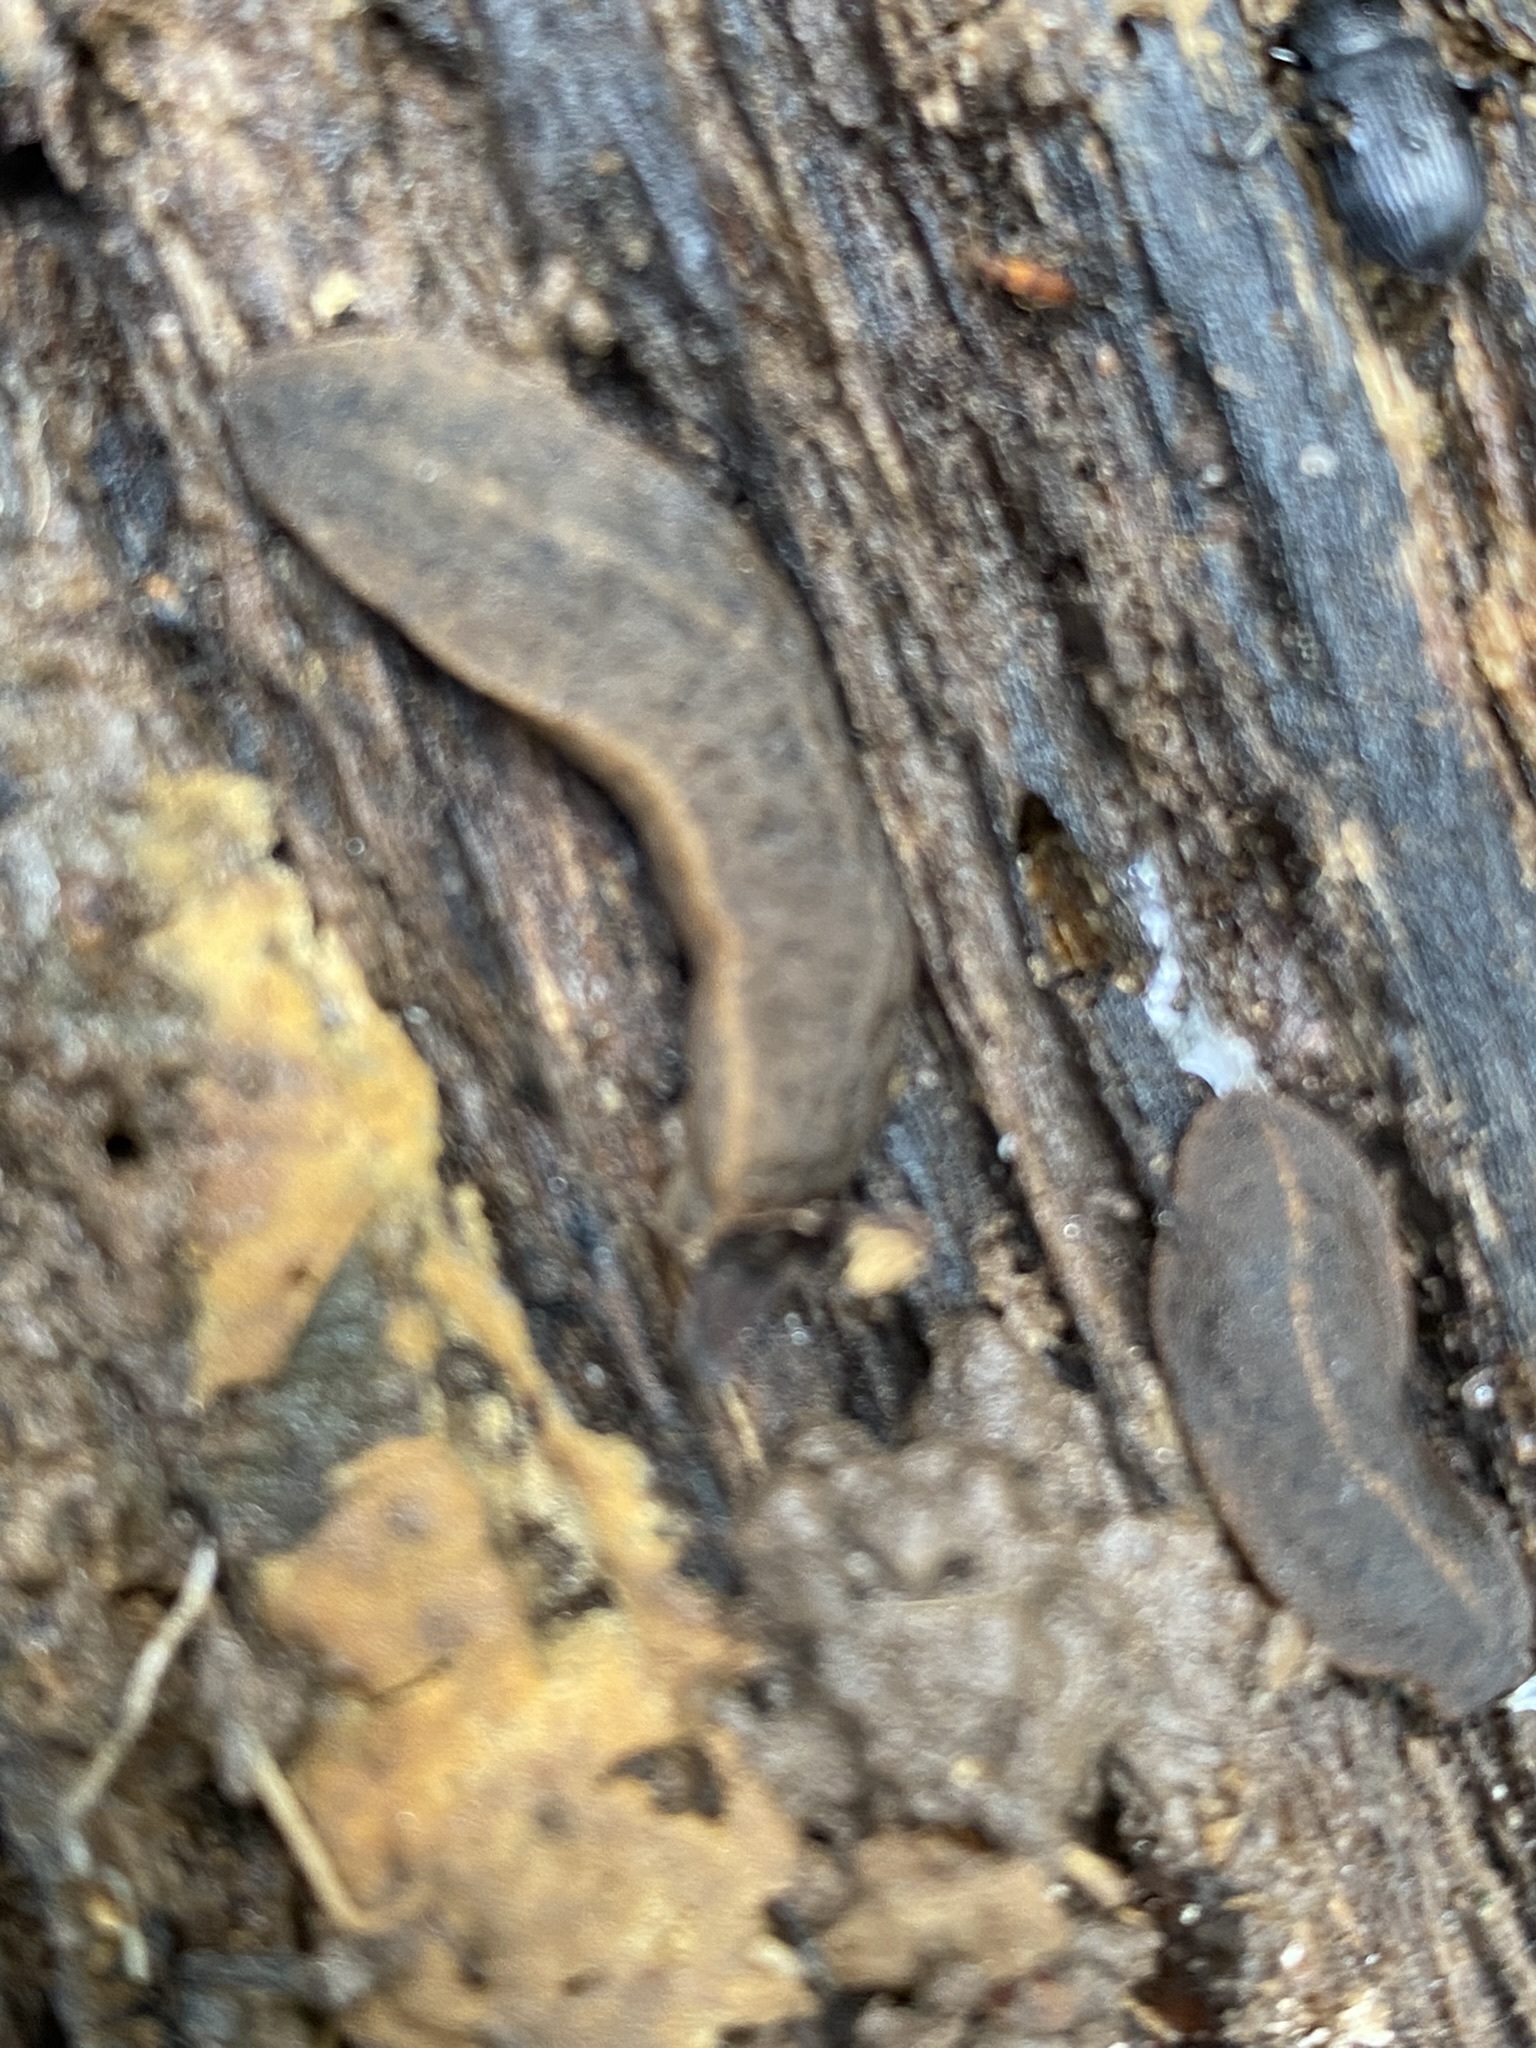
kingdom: Animalia
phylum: Mollusca
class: Gastropoda
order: Systellommatophora
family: Veronicellidae
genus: Phyllocaulis
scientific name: Phyllocaulis soleiformis
